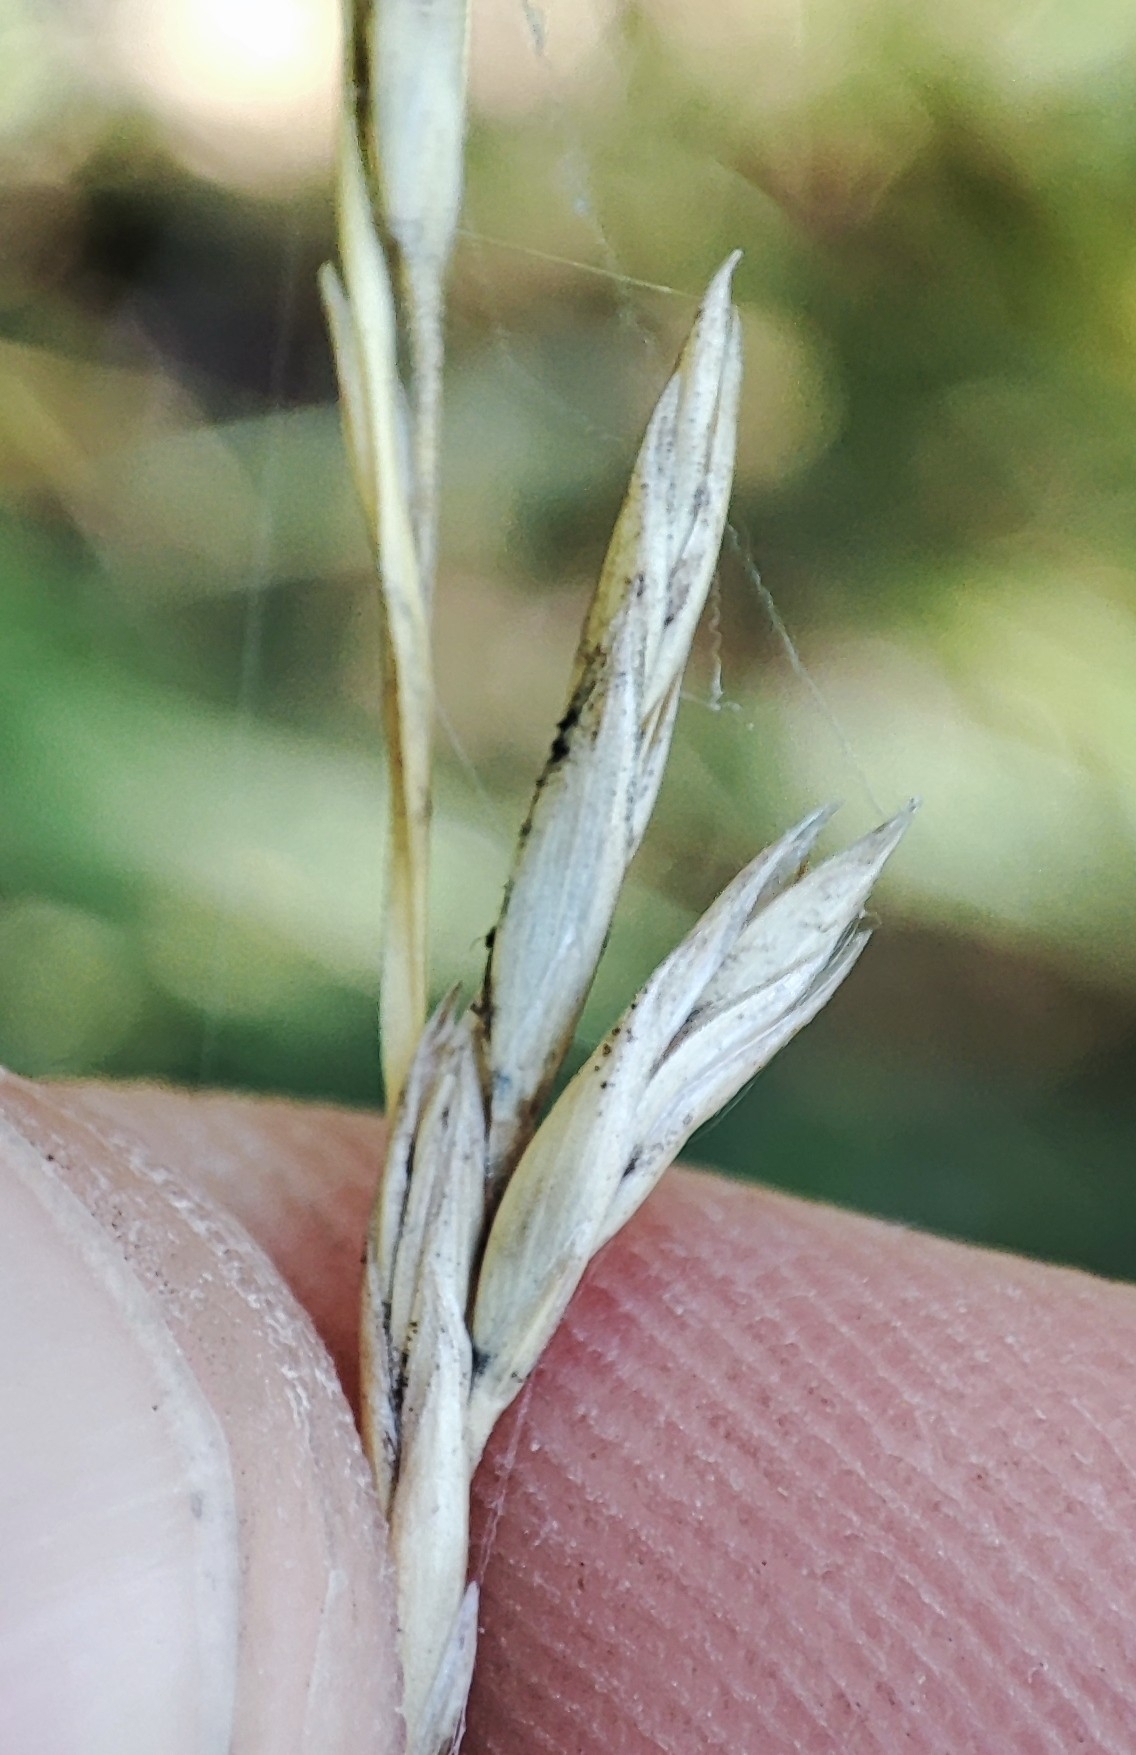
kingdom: Plantae
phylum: Tracheophyta
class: Liliopsida
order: Poales
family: Poaceae
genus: Calamagrostis
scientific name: Calamagrostis arundinacea
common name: Metskastik
